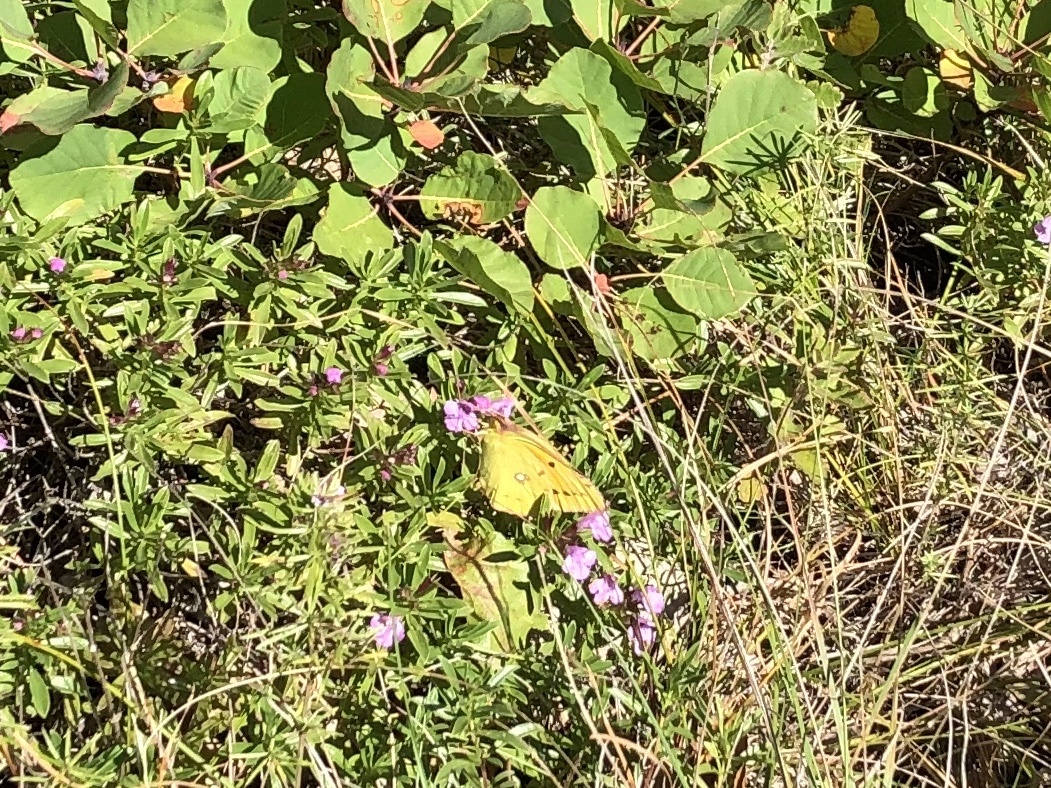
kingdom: Animalia
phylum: Arthropoda
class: Insecta
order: Lepidoptera
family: Pieridae
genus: Colias
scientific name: Colias croceus
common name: Clouded yellow
